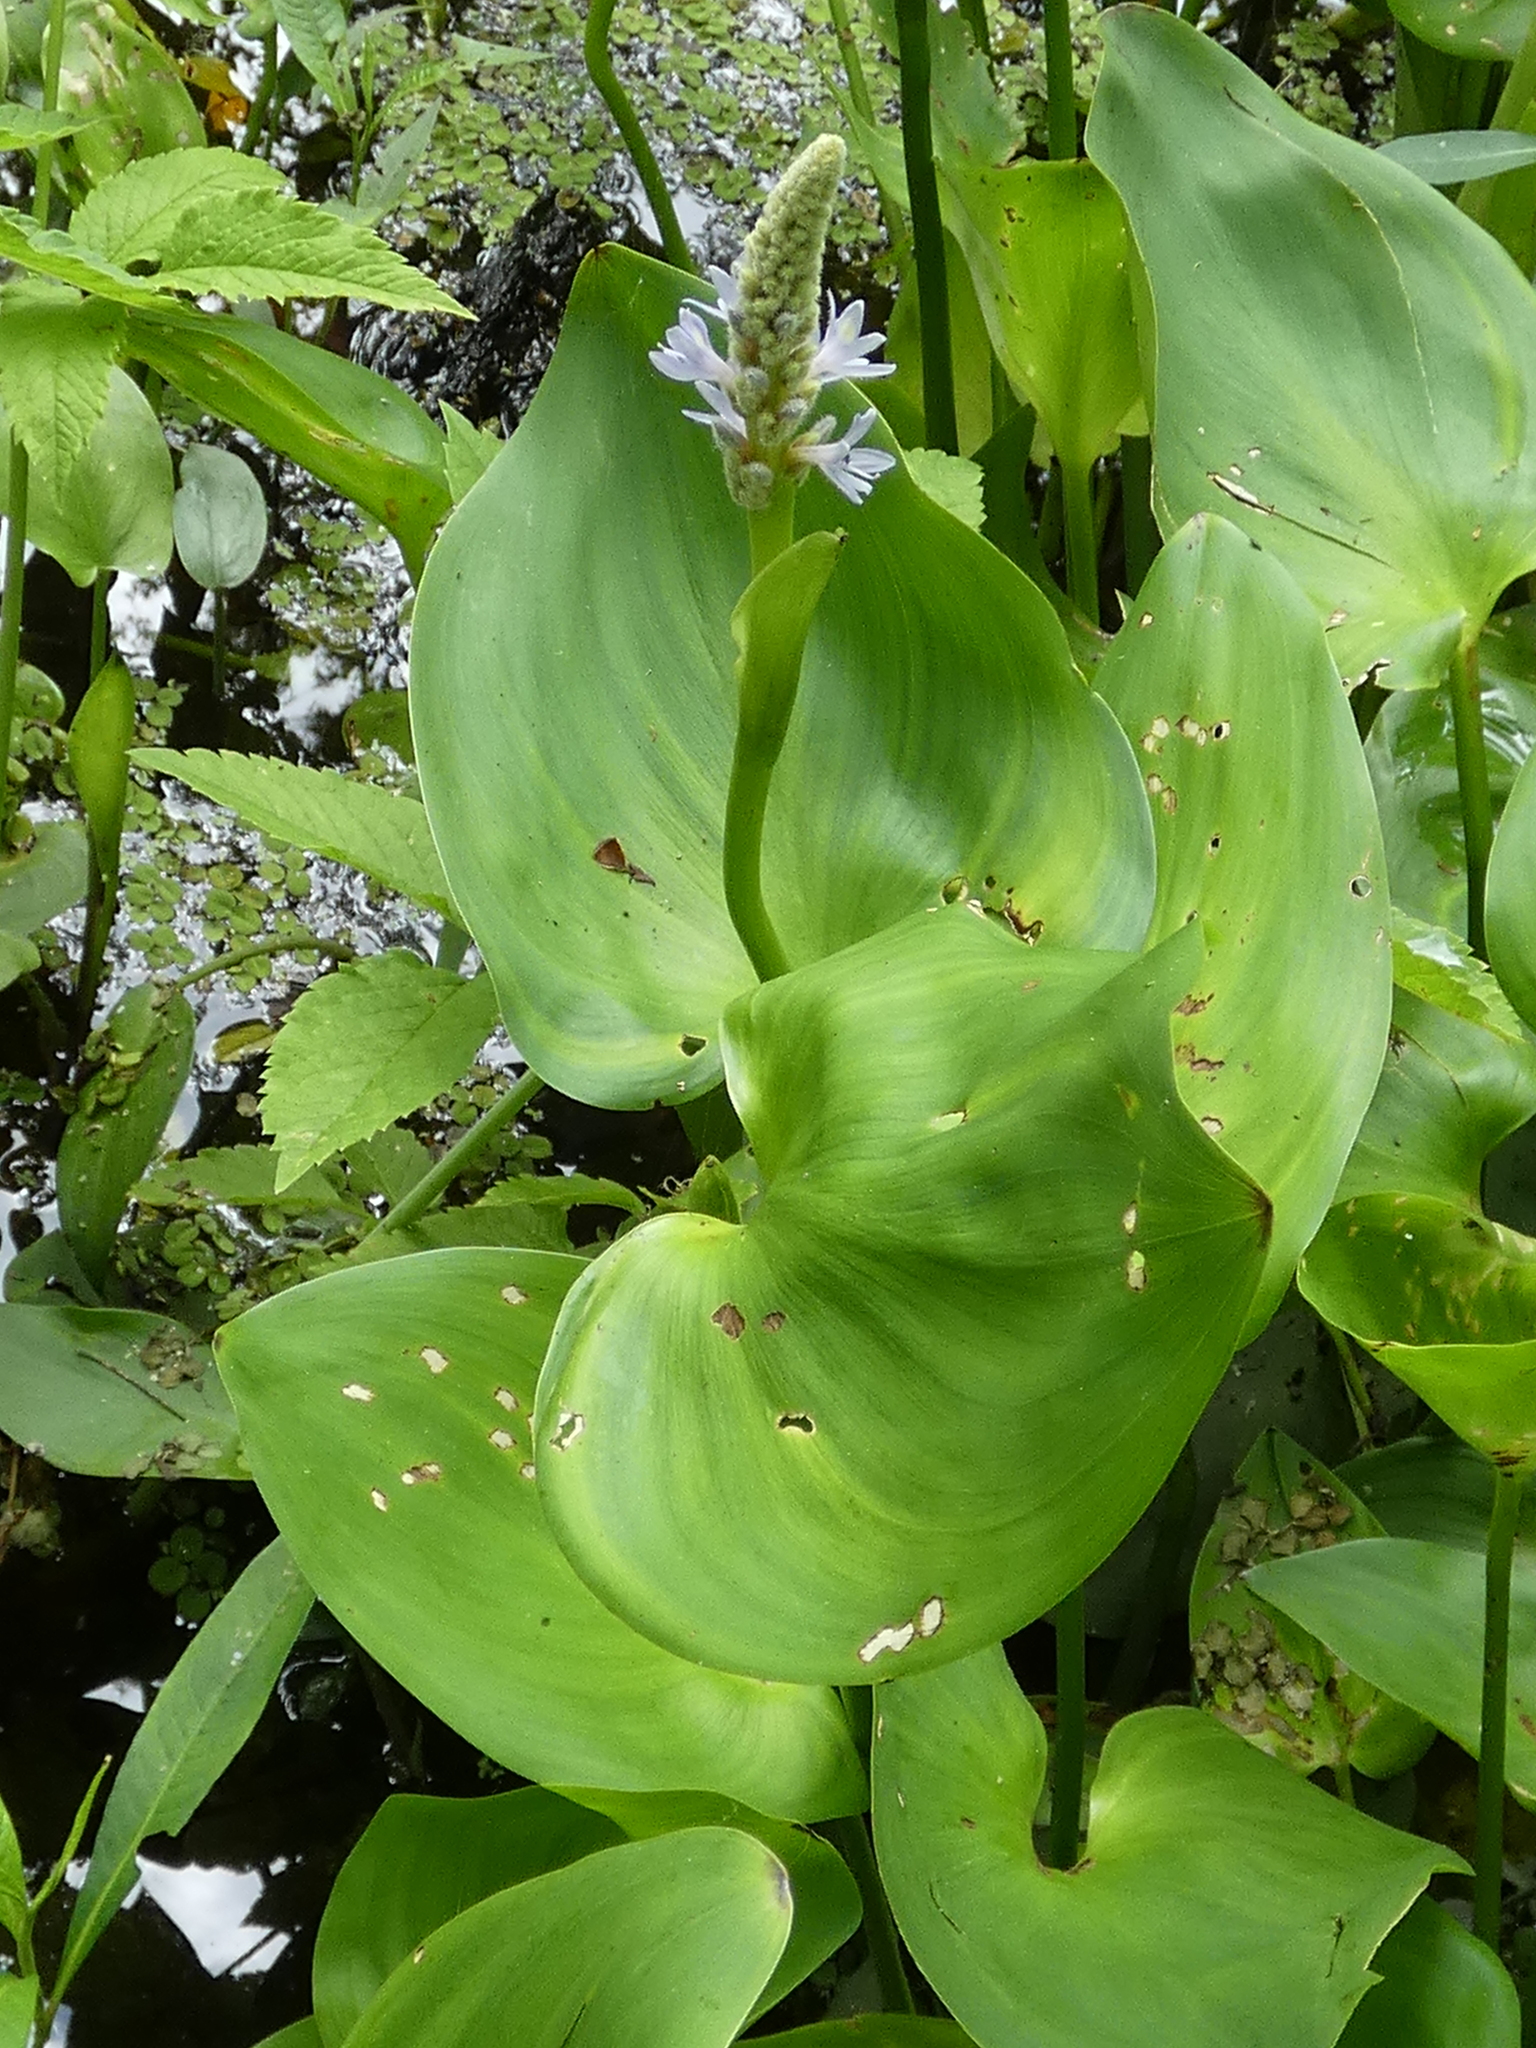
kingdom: Plantae
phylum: Tracheophyta
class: Liliopsida
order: Commelinales
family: Pontederiaceae
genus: Pontederia
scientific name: Pontederia cordata
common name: Pickerelweed
